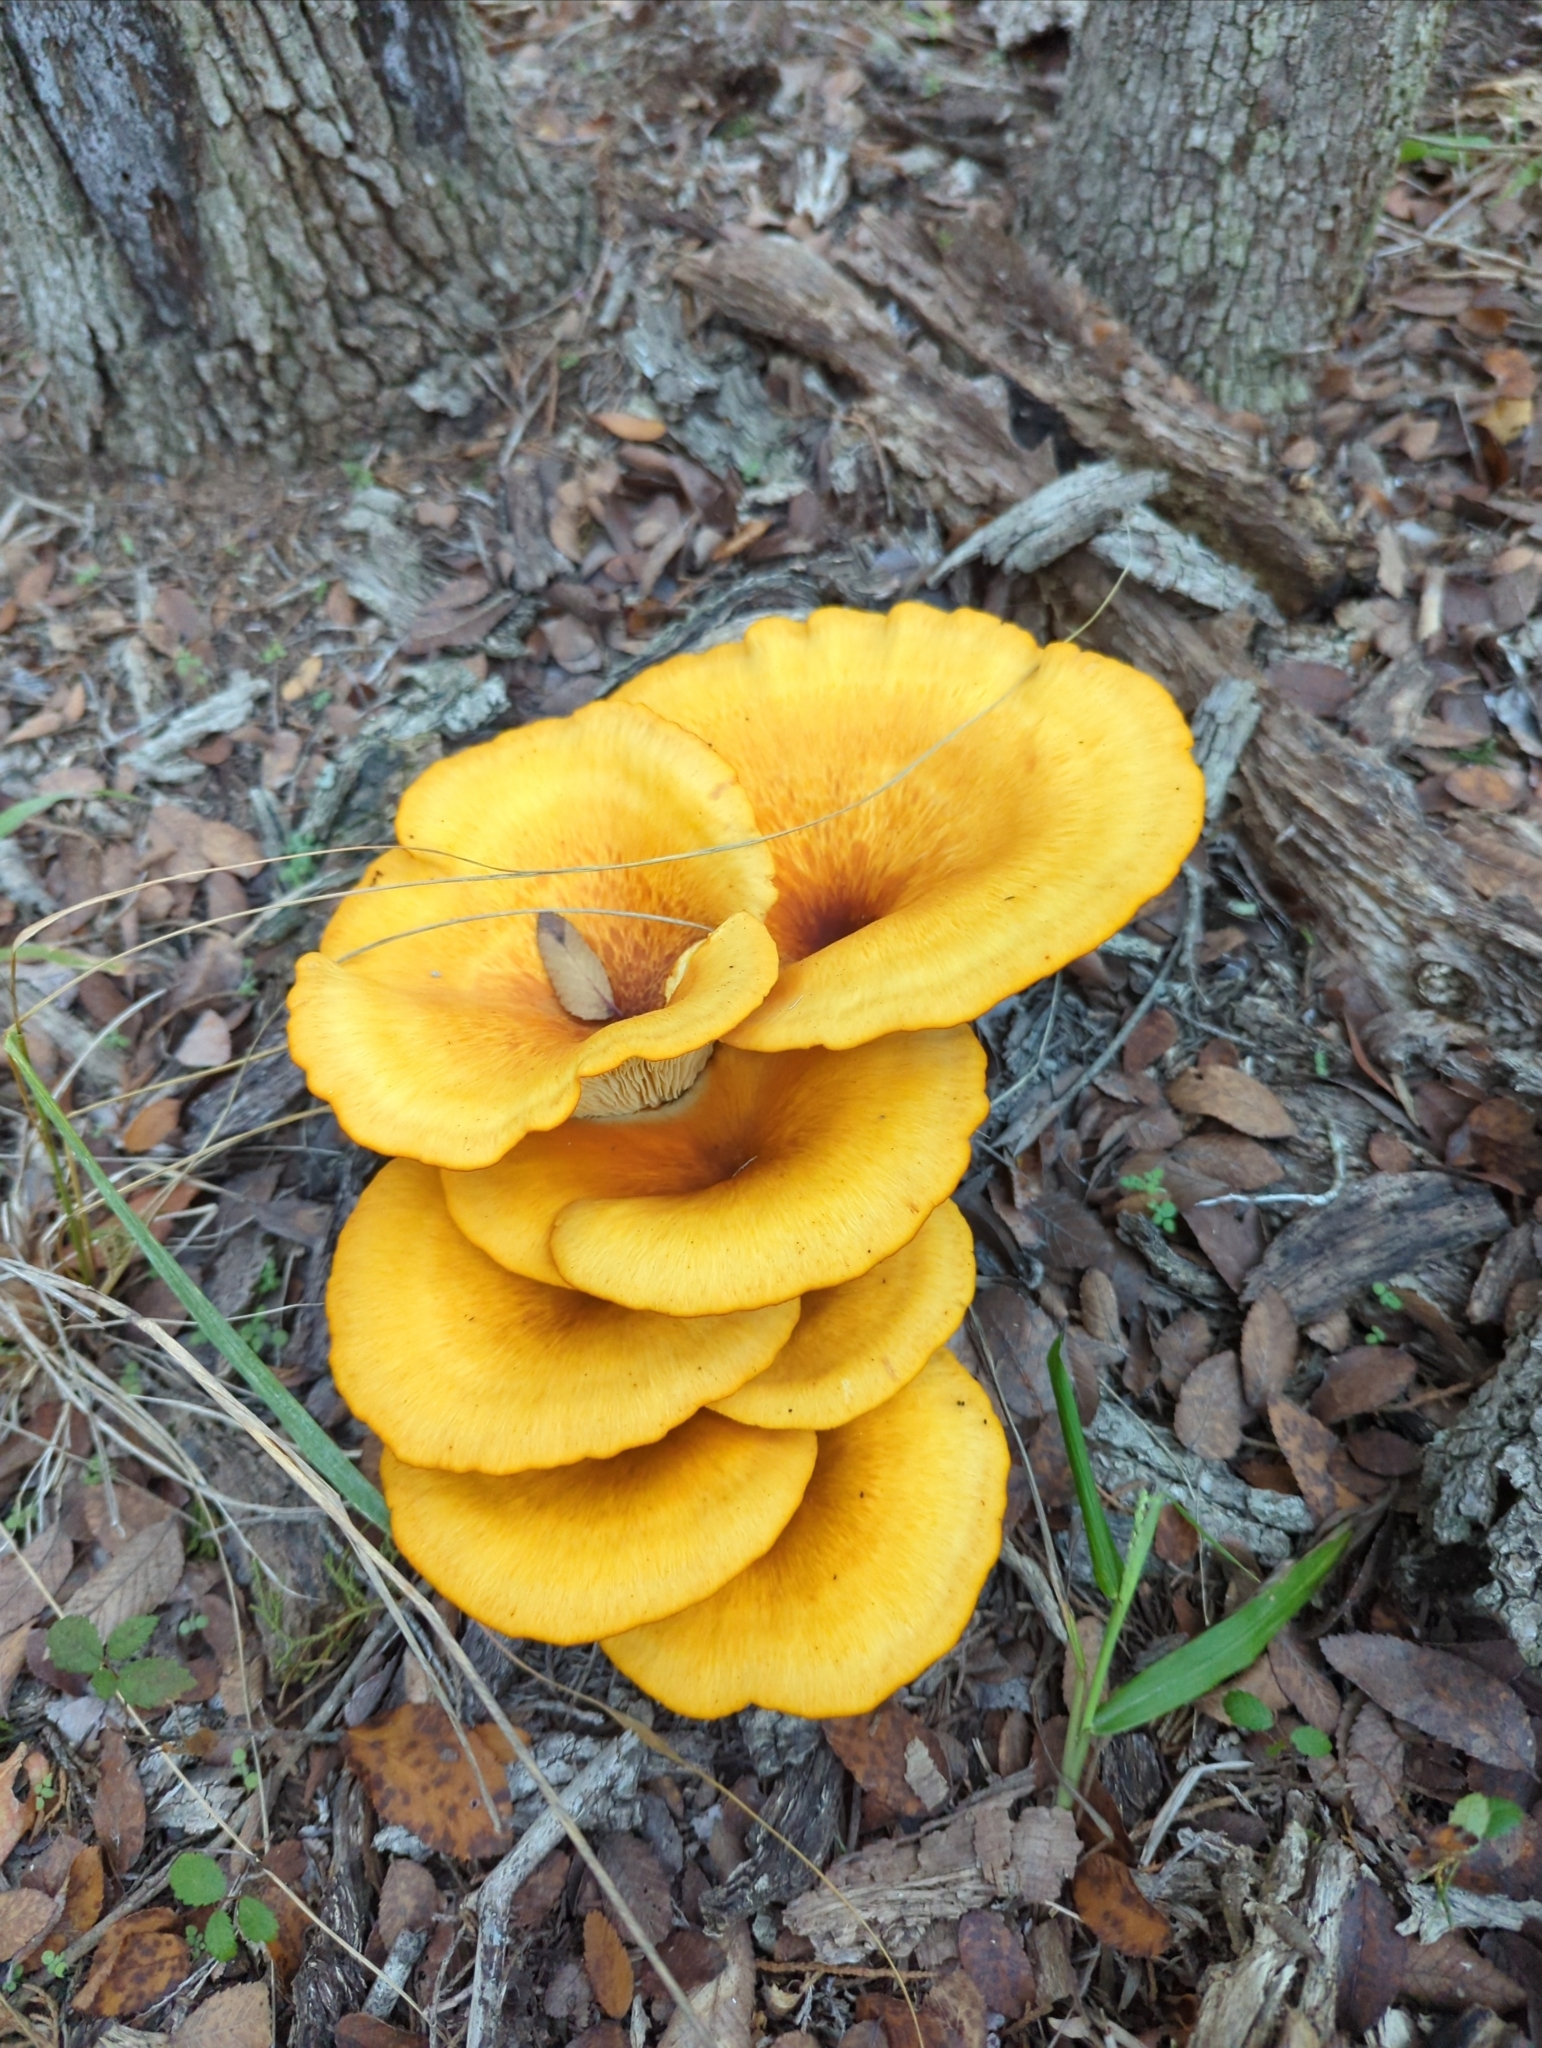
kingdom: Fungi
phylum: Basidiomycota
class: Agaricomycetes
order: Agaricales
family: Omphalotaceae
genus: Omphalotus
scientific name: Omphalotus subilludens
